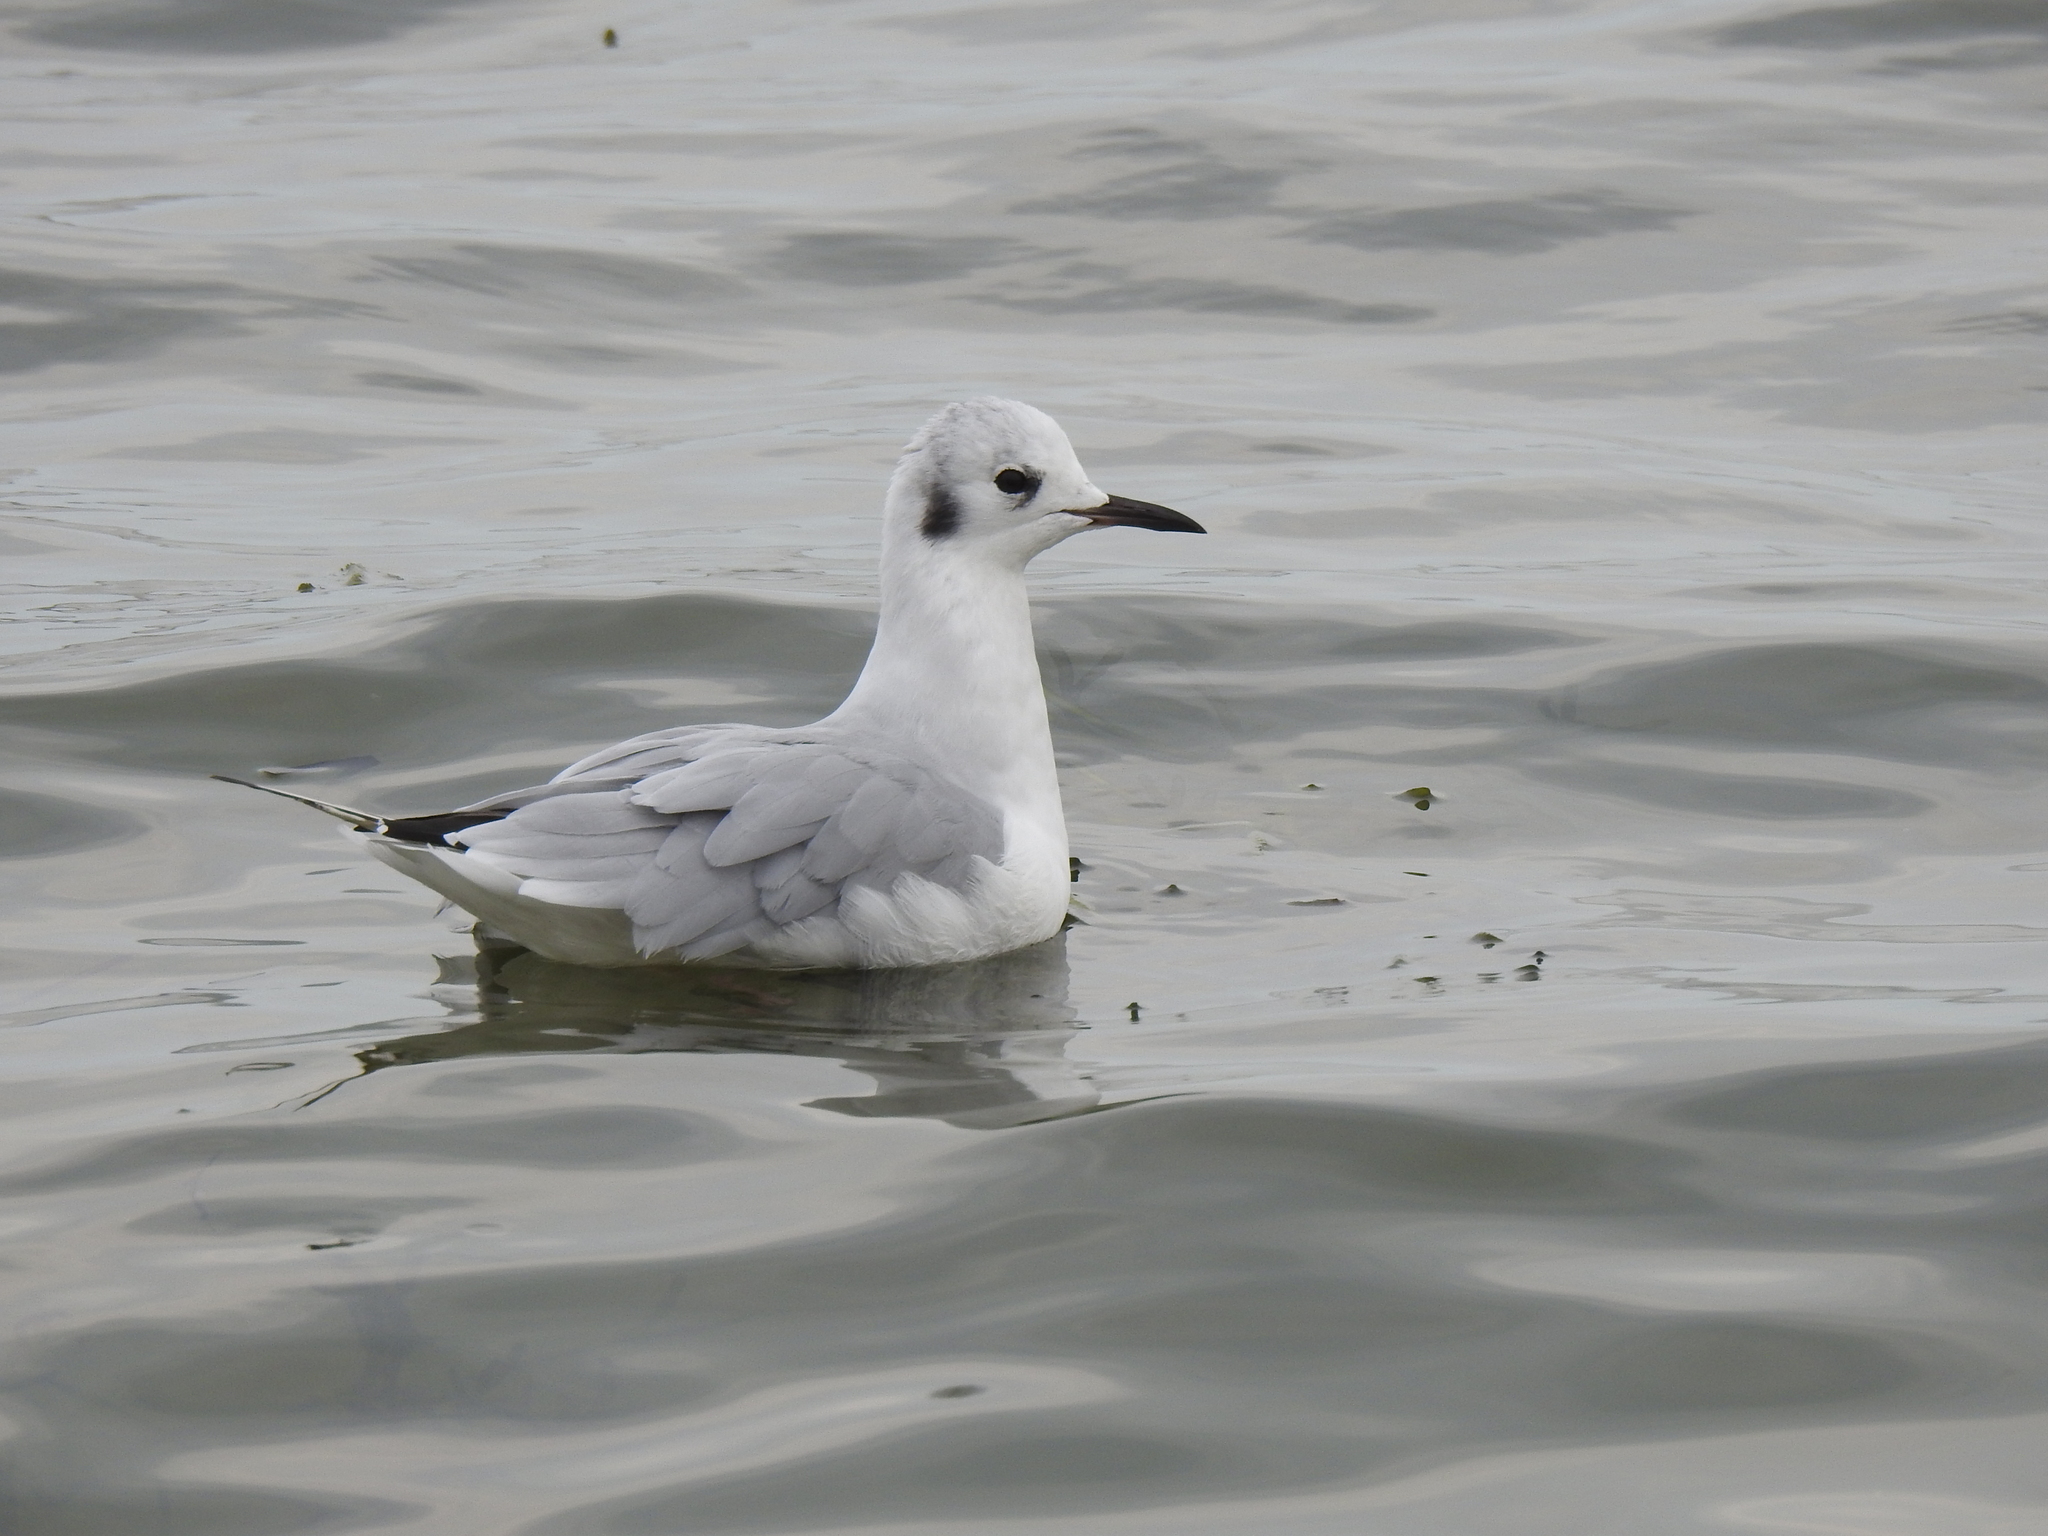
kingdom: Animalia
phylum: Chordata
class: Aves
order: Charadriiformes
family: Laridae
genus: Chroicocephalus
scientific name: Chroicocephalus philadelphia
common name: Bonaparte's gull
